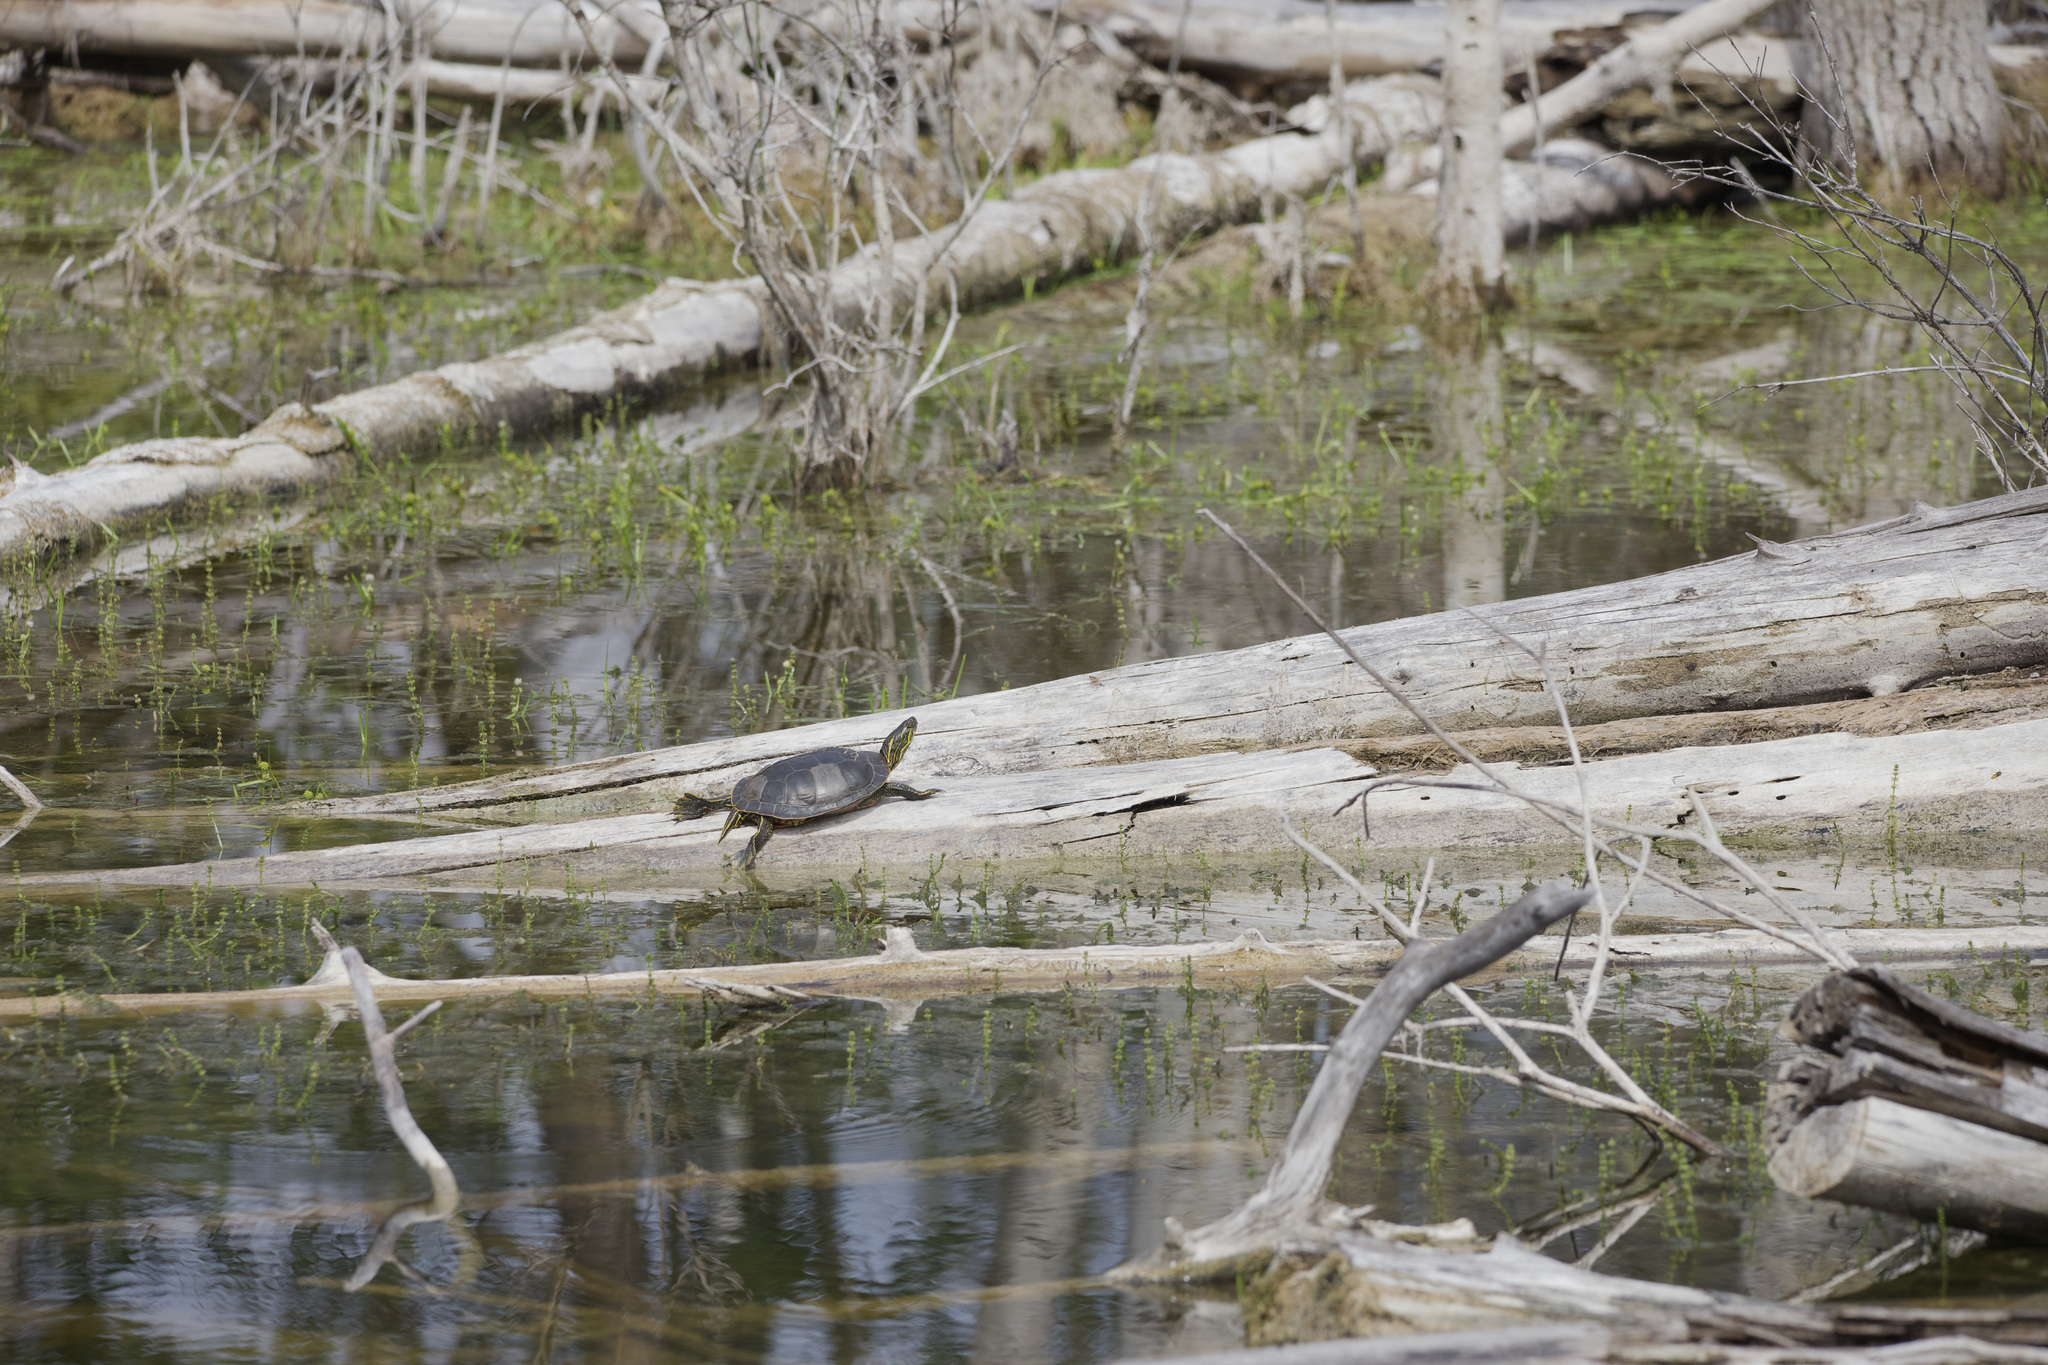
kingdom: Animalia
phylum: Chordata
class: Testudines
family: Emydidae
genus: Chrysemys
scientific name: Chrysemys picta
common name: Painted turtle
